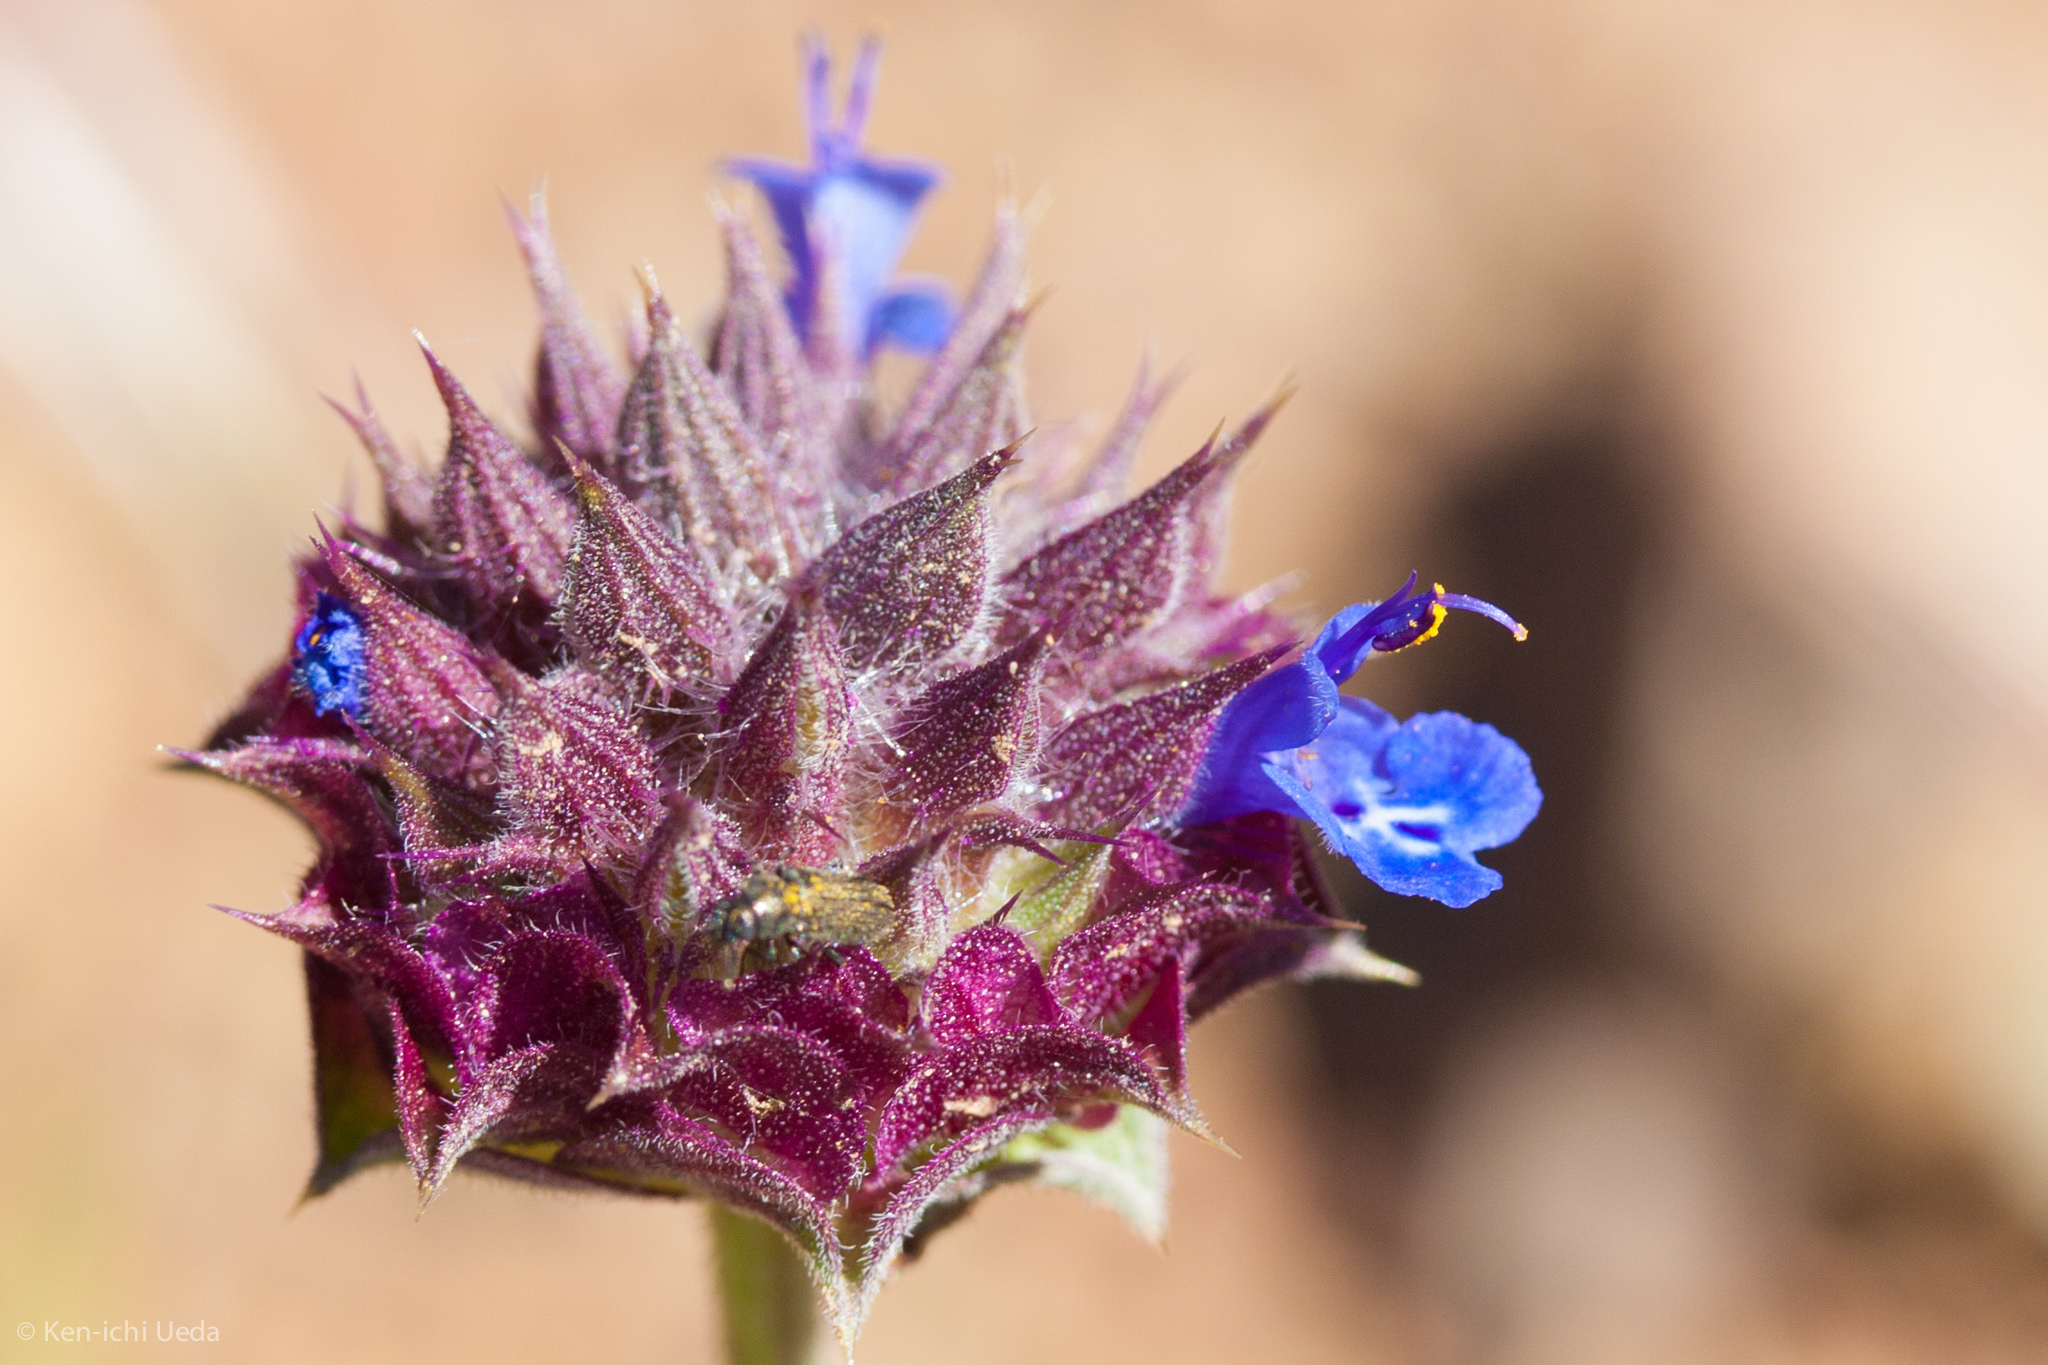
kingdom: Plantae
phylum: Tracheophyta
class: Magnoliopsida
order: Lamiales
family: Lamiaceae
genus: Salvia
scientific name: Salvia columbariae
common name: Chia
